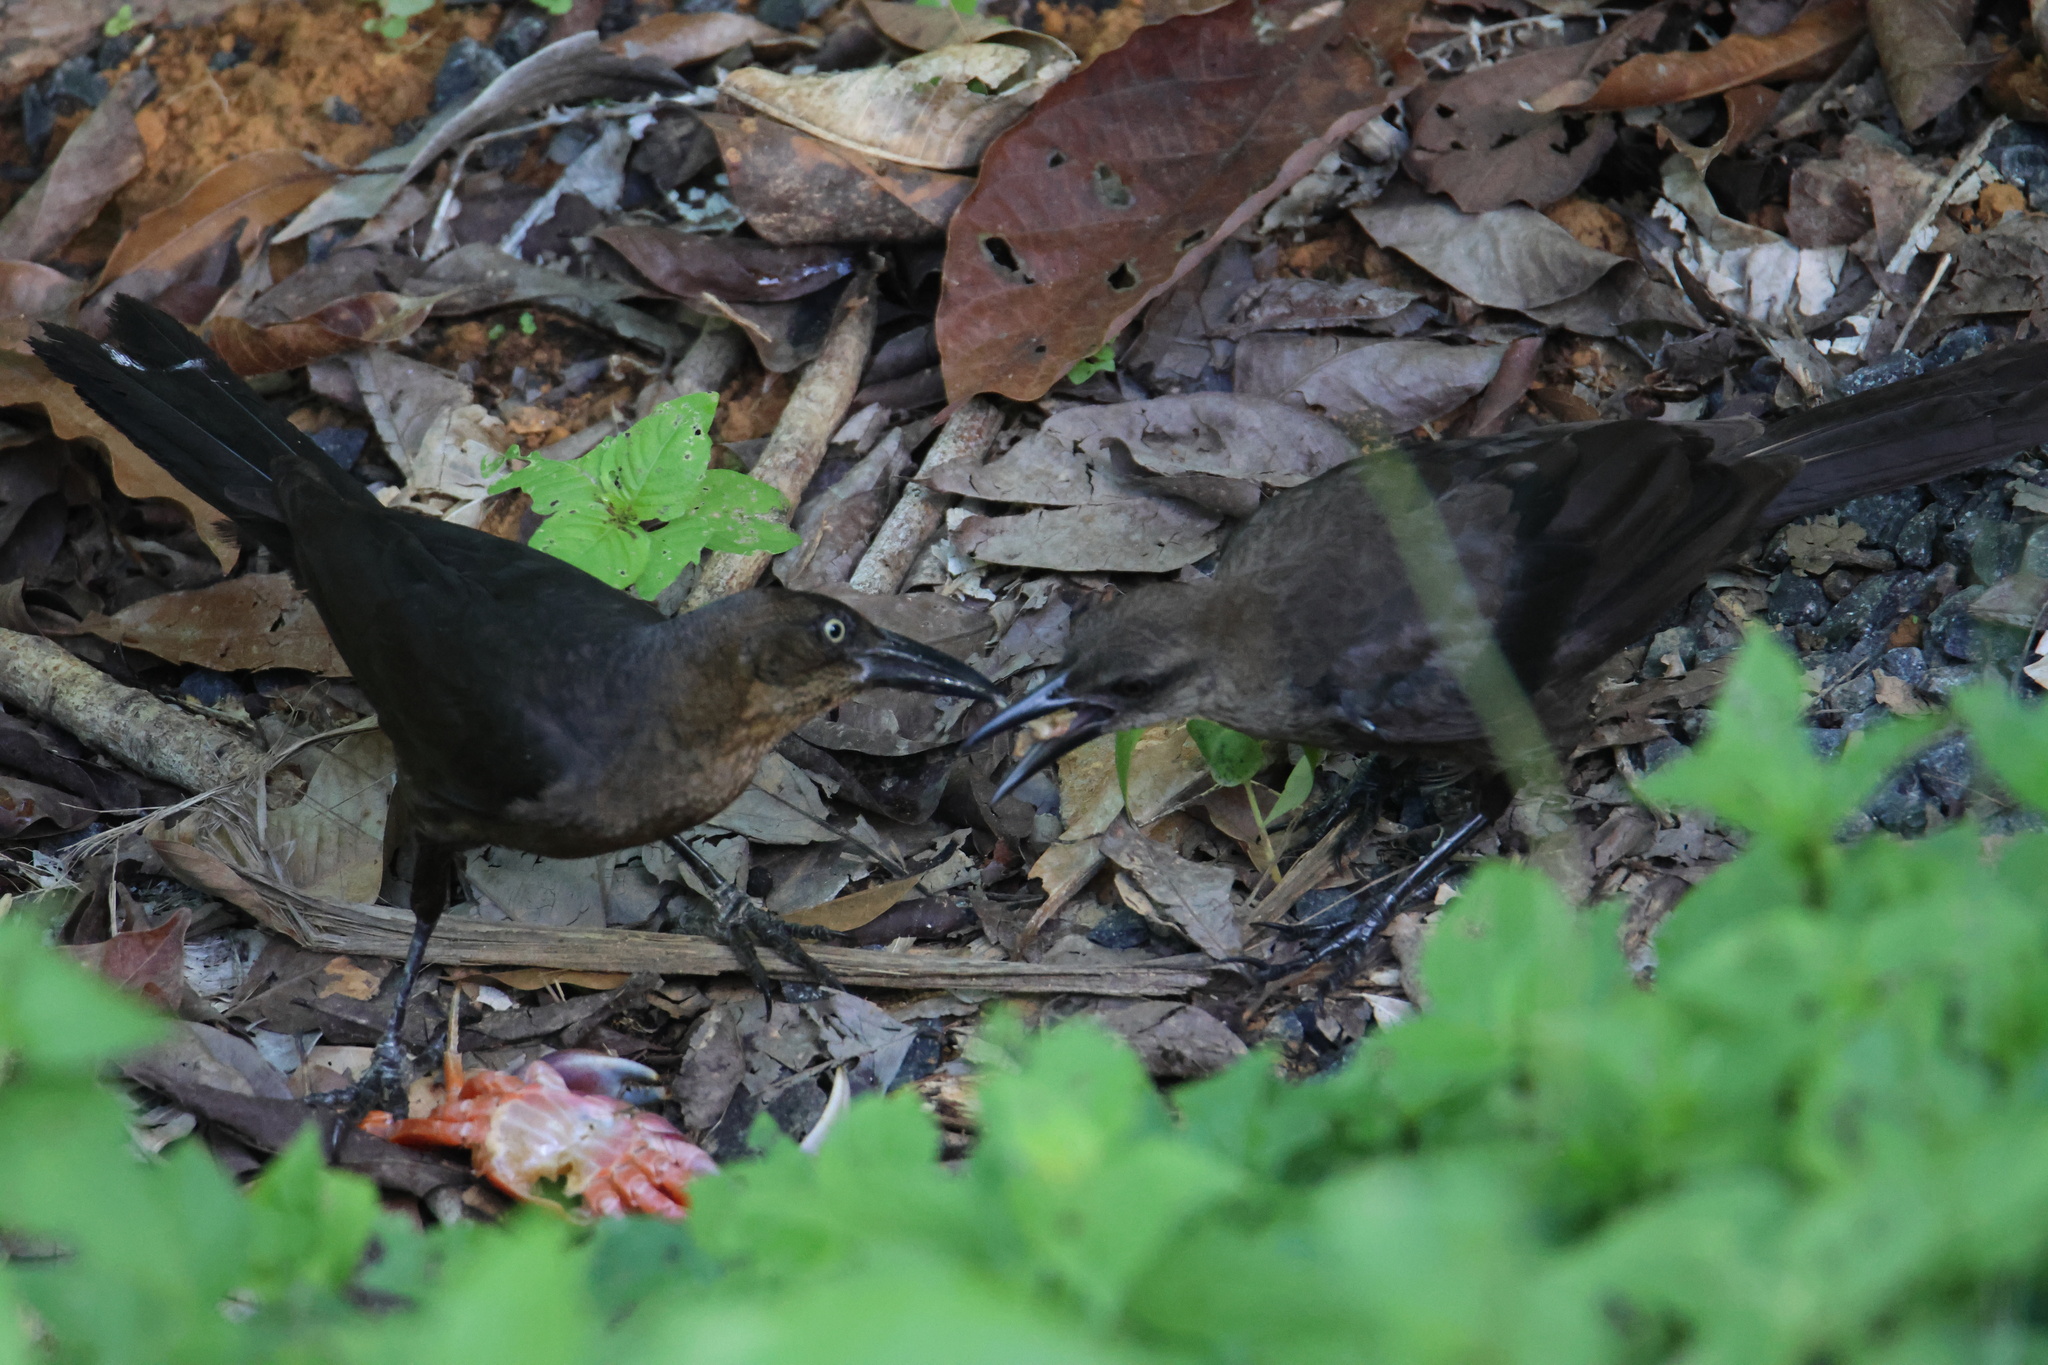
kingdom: Animalia
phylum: Chordata
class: Aves
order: Passeriformes
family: Icteridae
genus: Quiscalus
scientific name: Quiscalus mexicanus
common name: Great-tailed grackle
